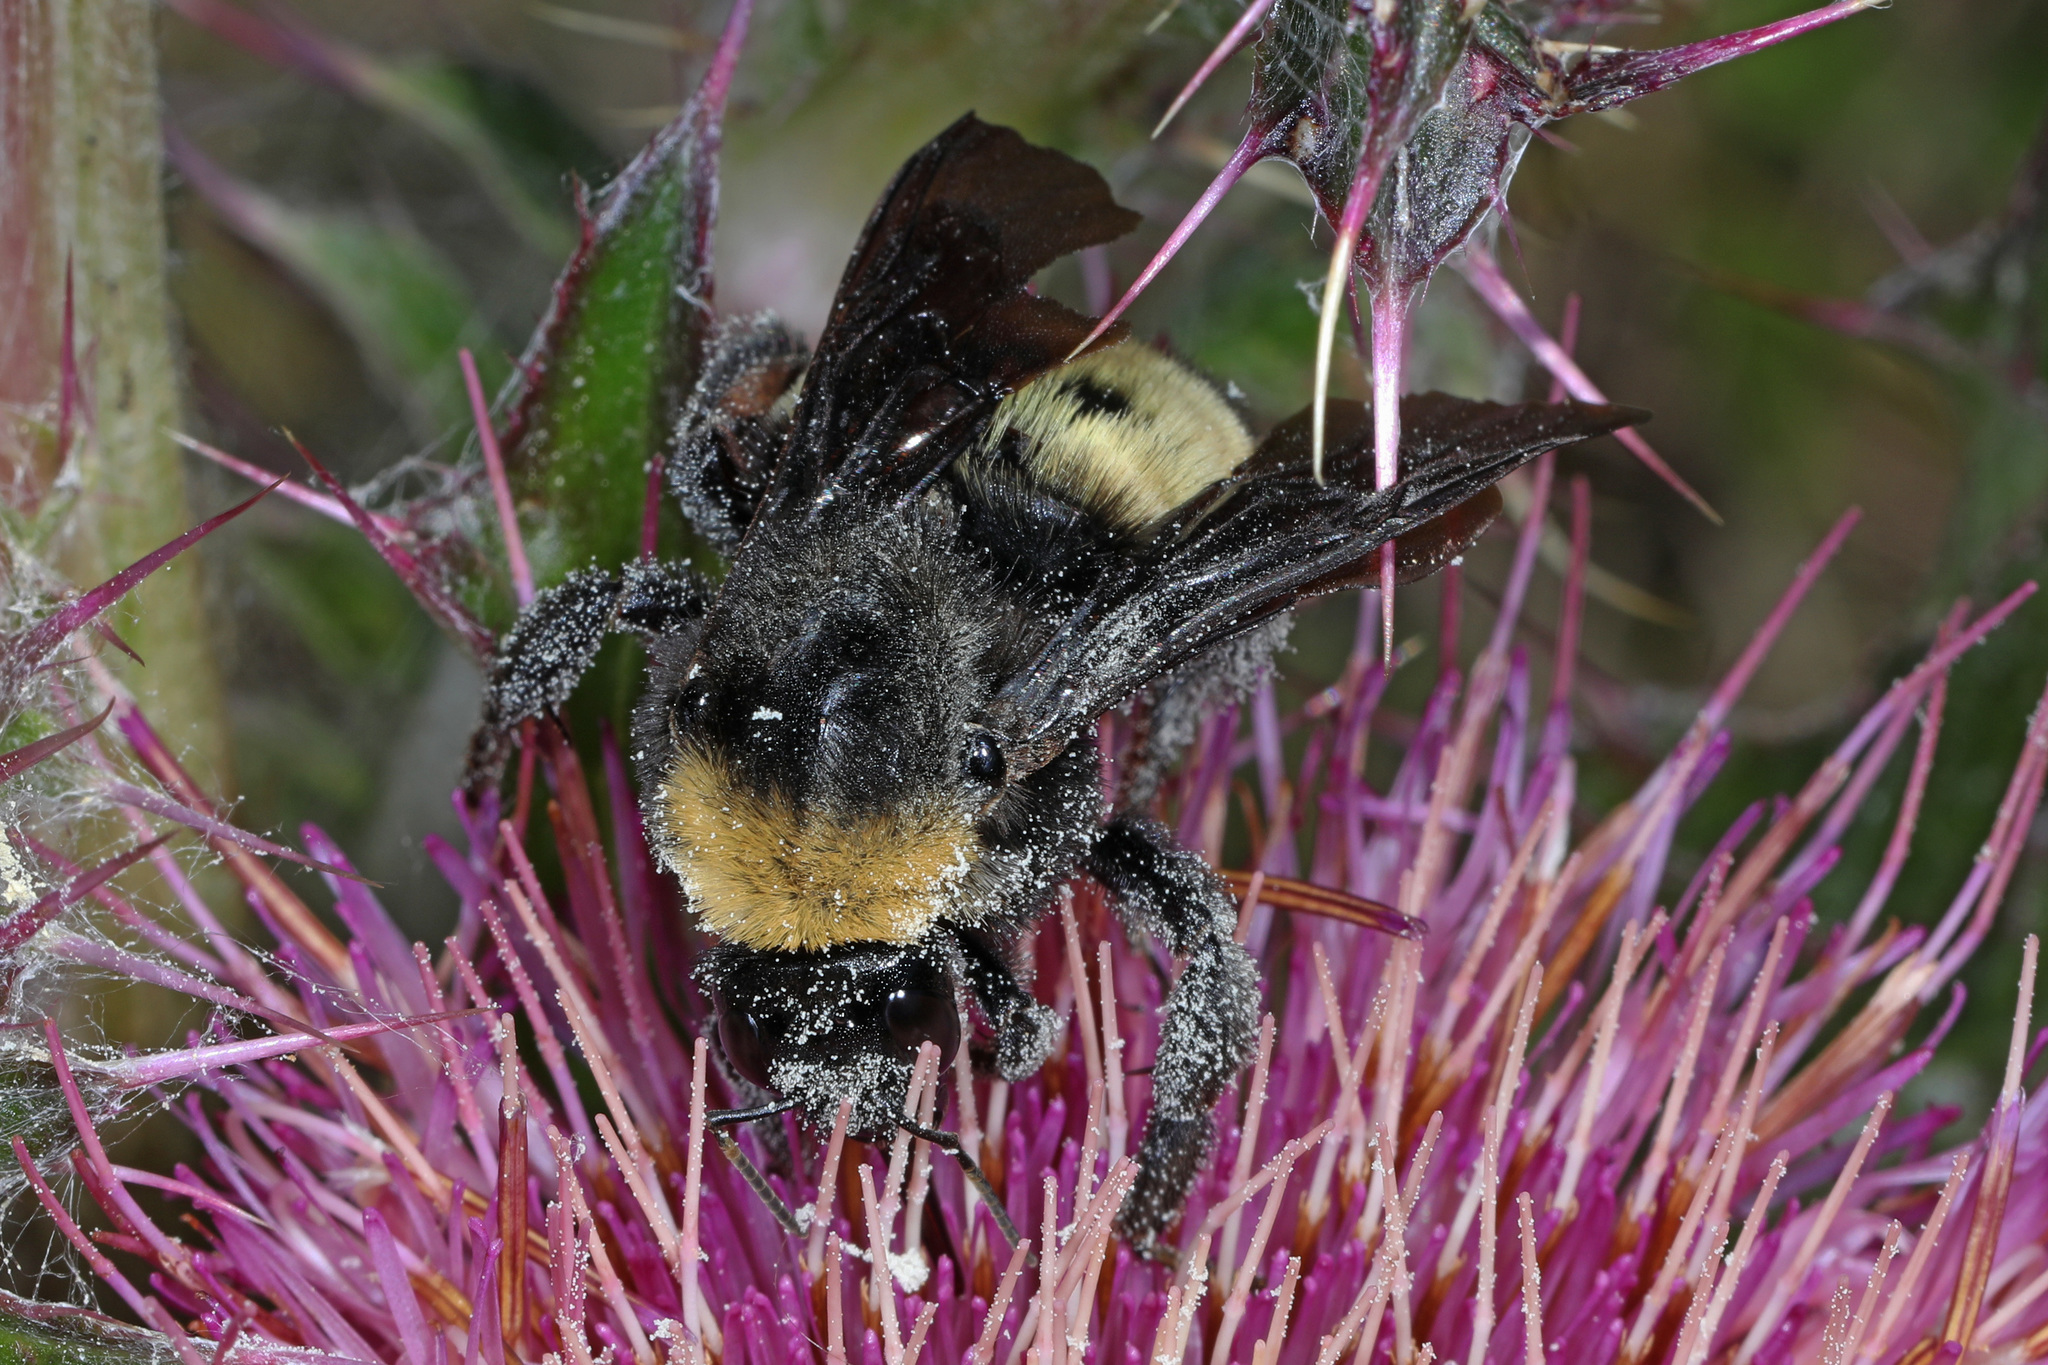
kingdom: Animalia
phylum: Arthropoda
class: Insecta
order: Hymenoptera
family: Apidae
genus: Bombus
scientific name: Bombus pensylvanicus
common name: Bumble bee
